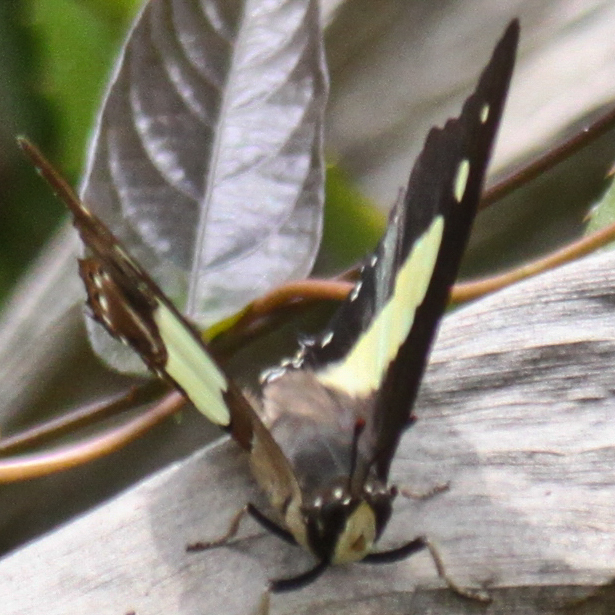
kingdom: Animalia
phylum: Arthropoda
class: Insecta
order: Lepidoptera
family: Nymphalidae
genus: Polyura
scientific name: Polyura athamas
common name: Common nawab
